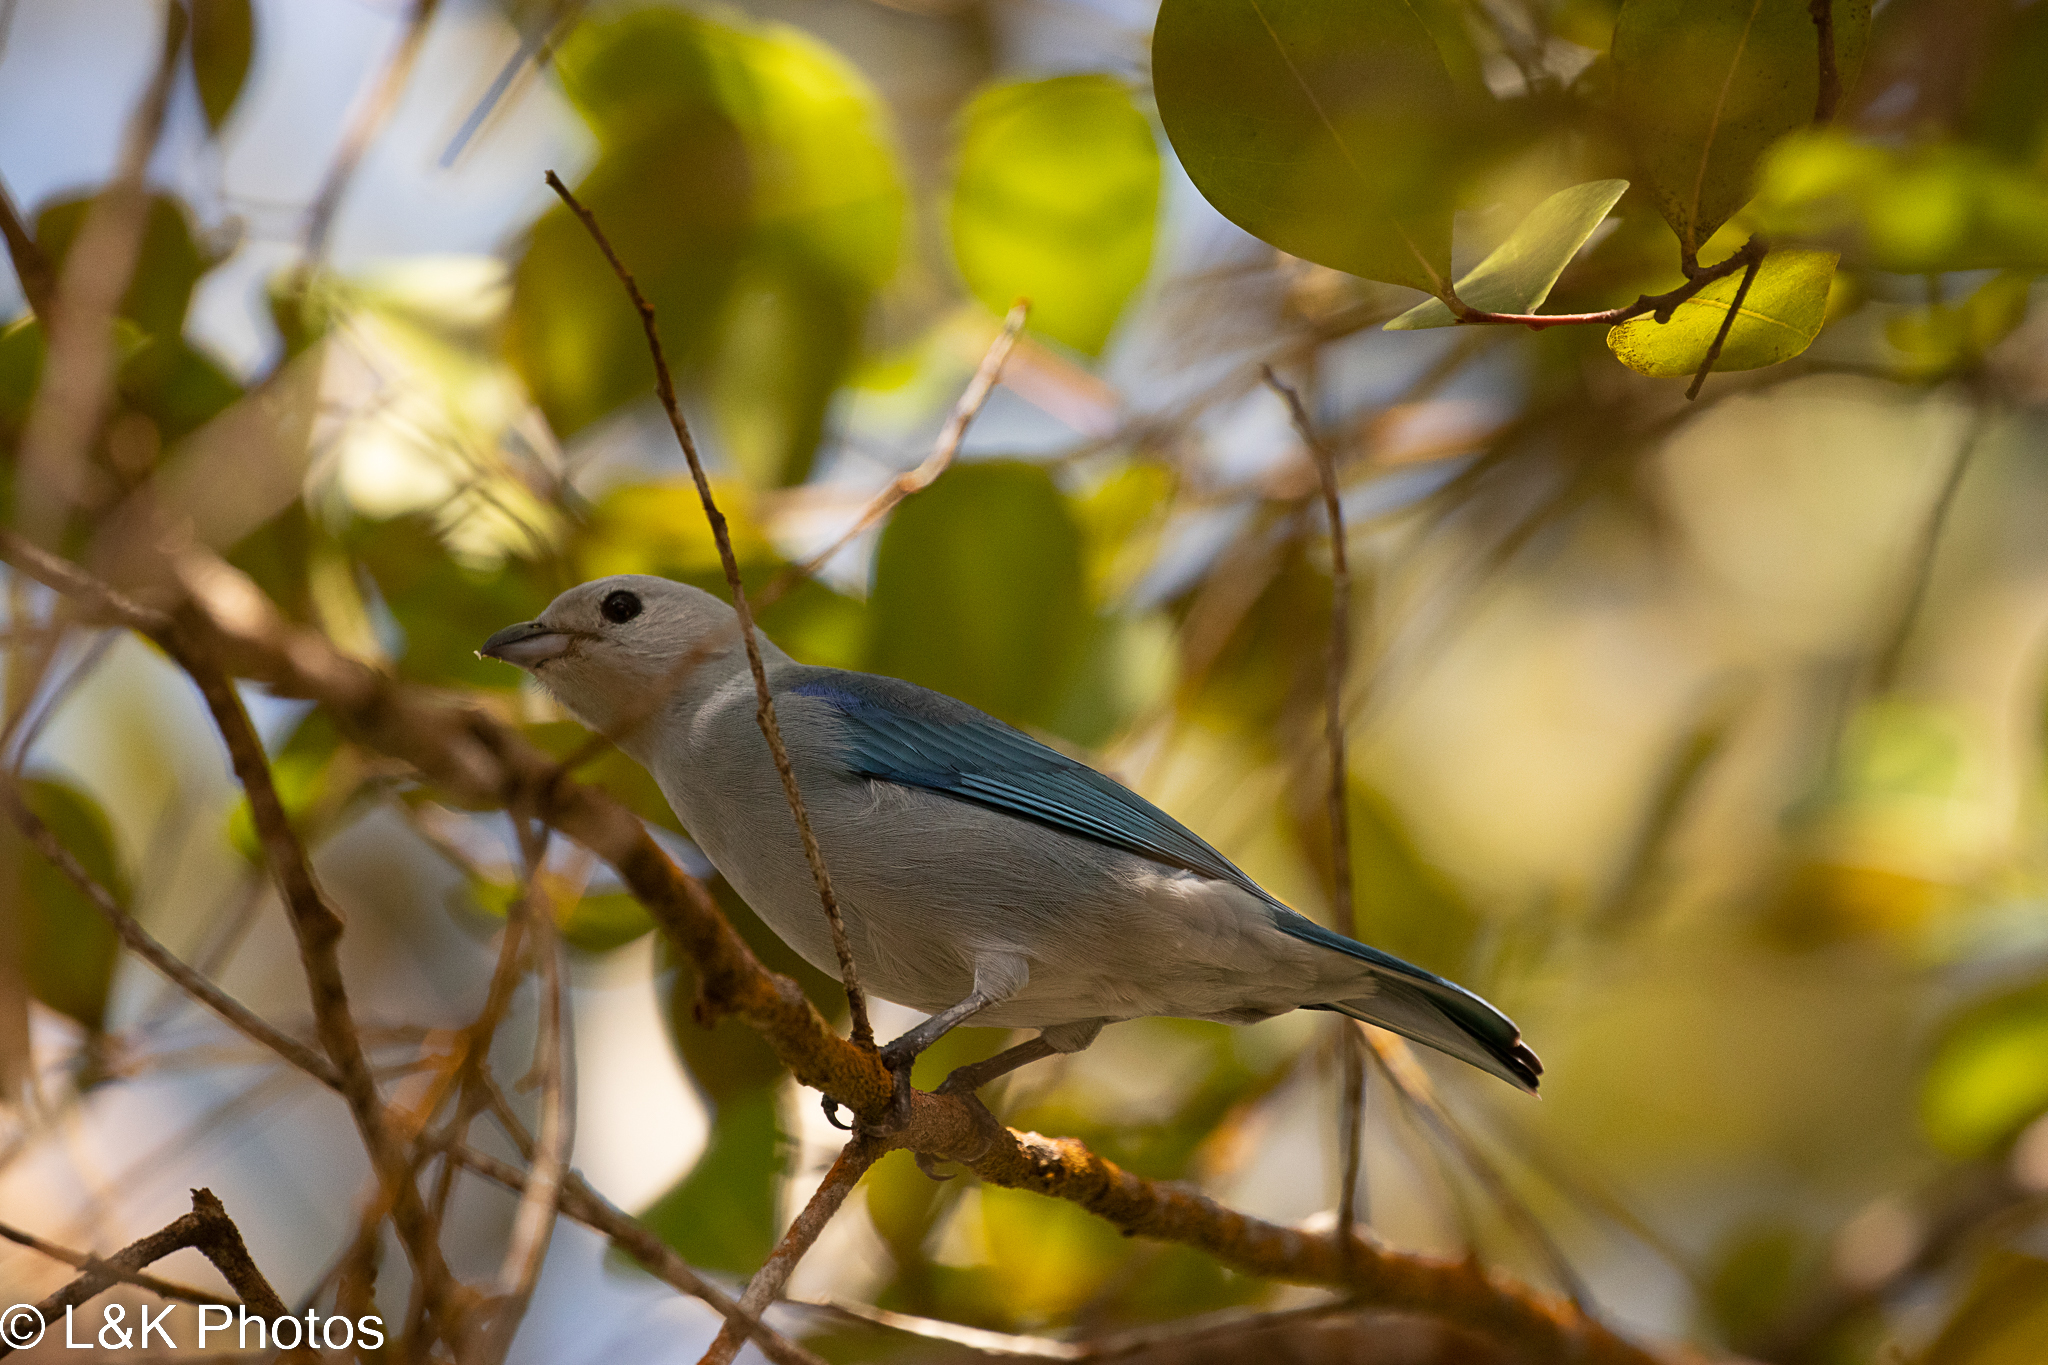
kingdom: Animalia
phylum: Chordata
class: Aves
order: Passeriformes
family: Thraupidae
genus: Thraupis
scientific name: Thraupis episcopus
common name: Blue-grey tanager
